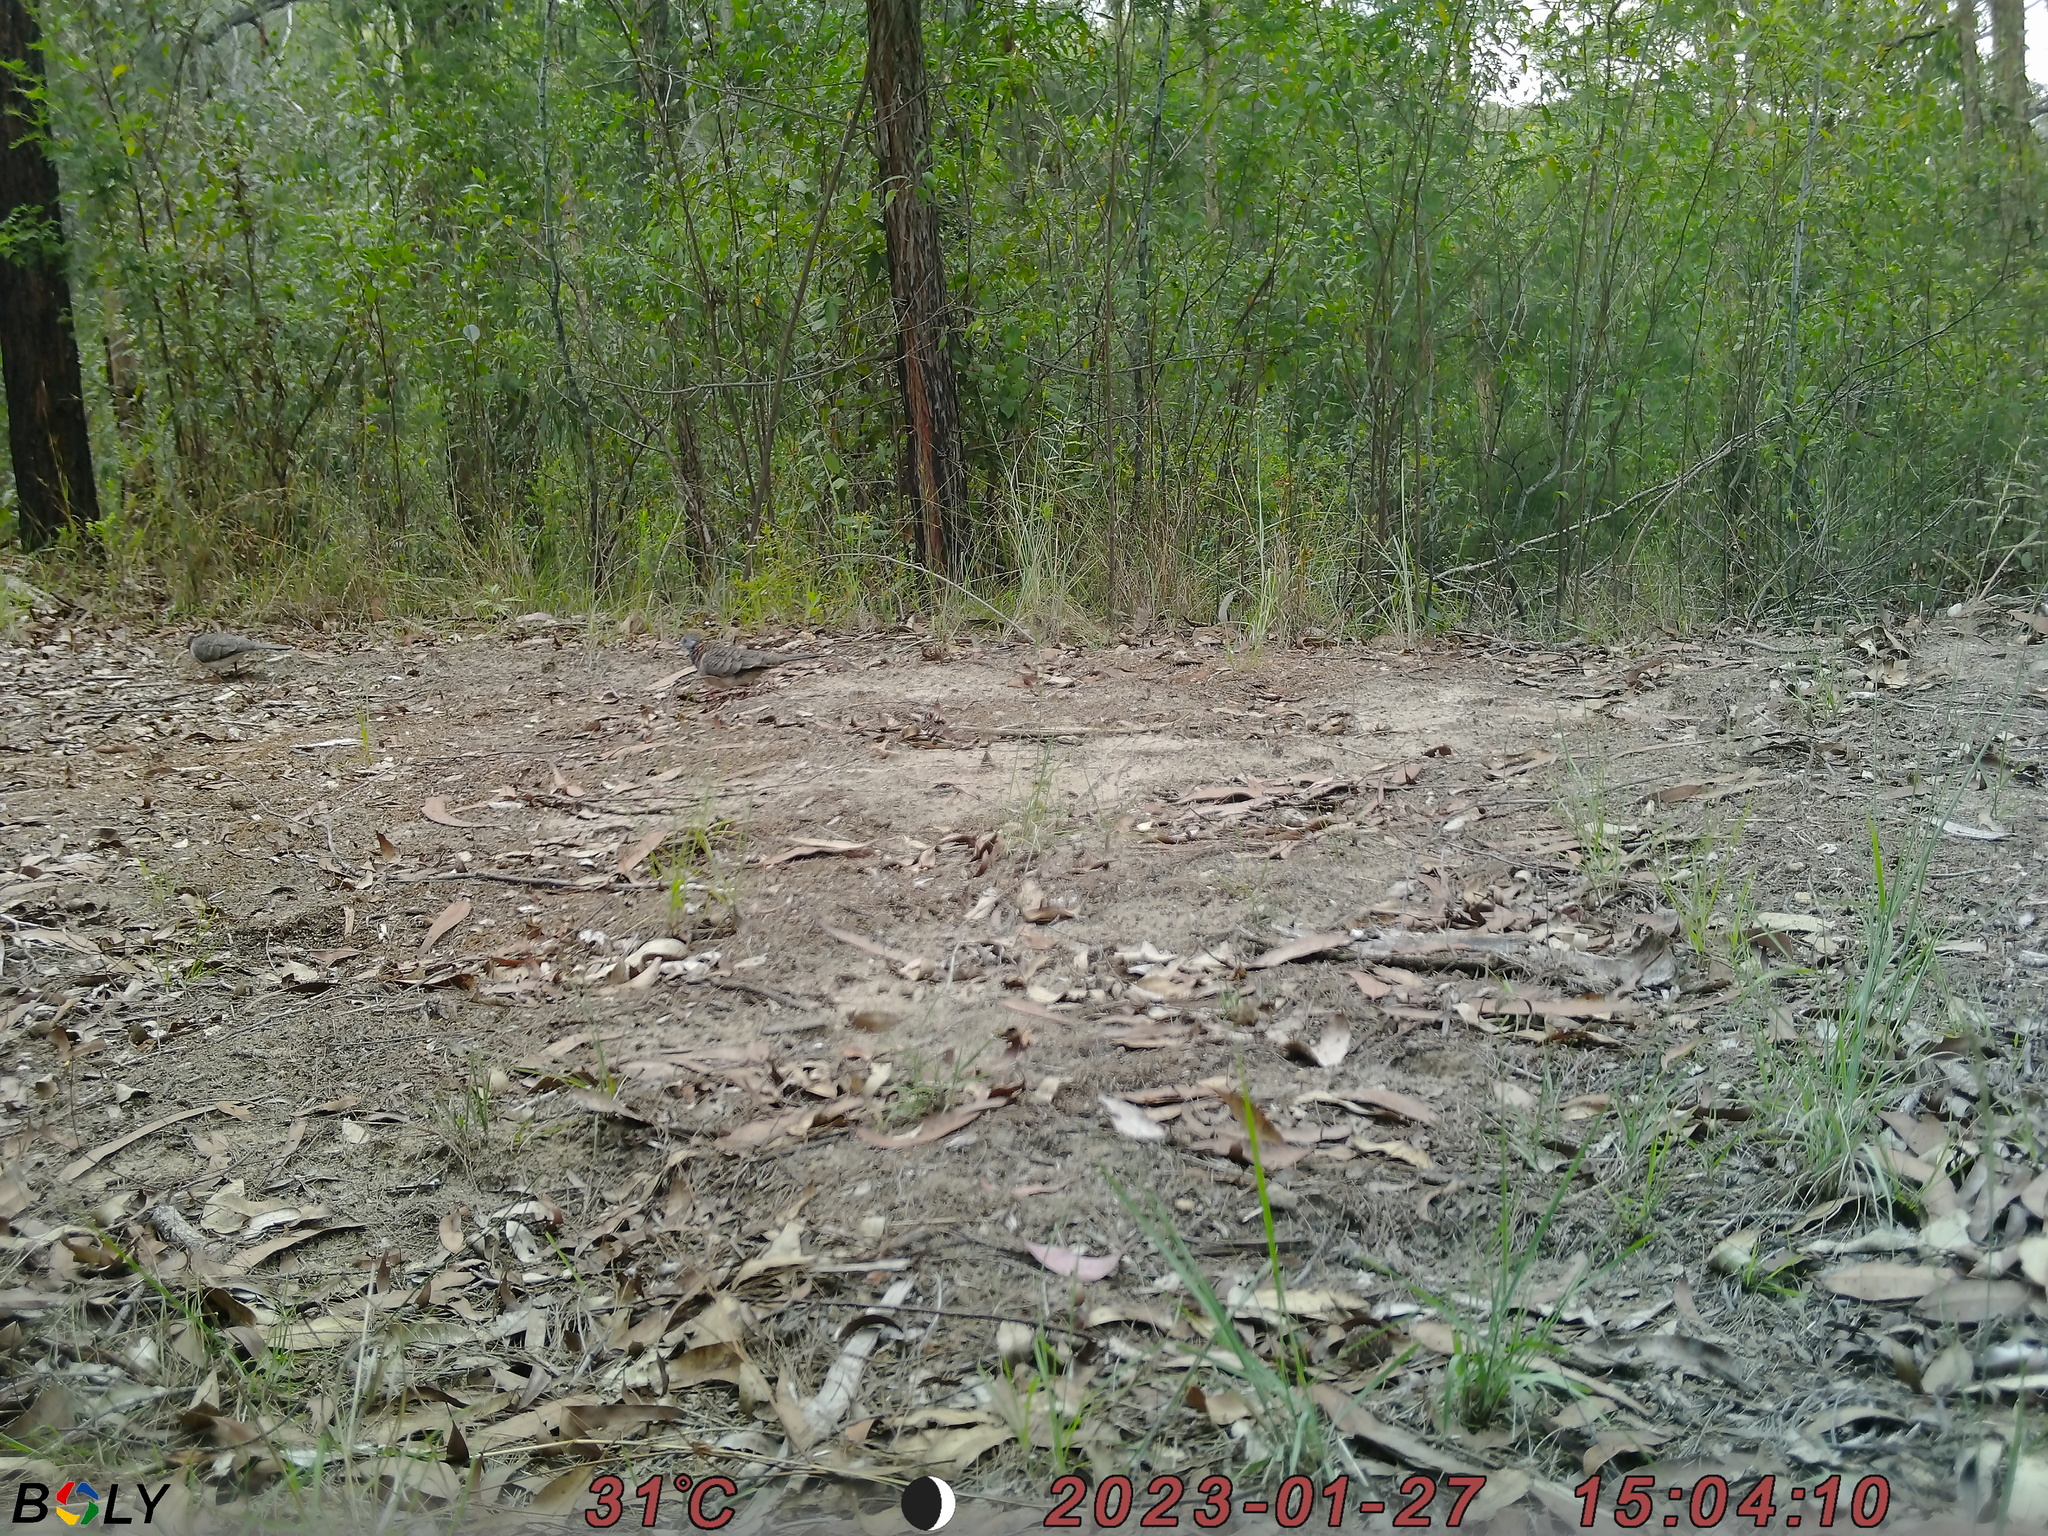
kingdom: Animalia
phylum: Chordata
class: Aves
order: Columbiformes
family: Columbidae
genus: Geopelia
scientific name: Geopelia humeralis
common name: Bar-shouldered dove
